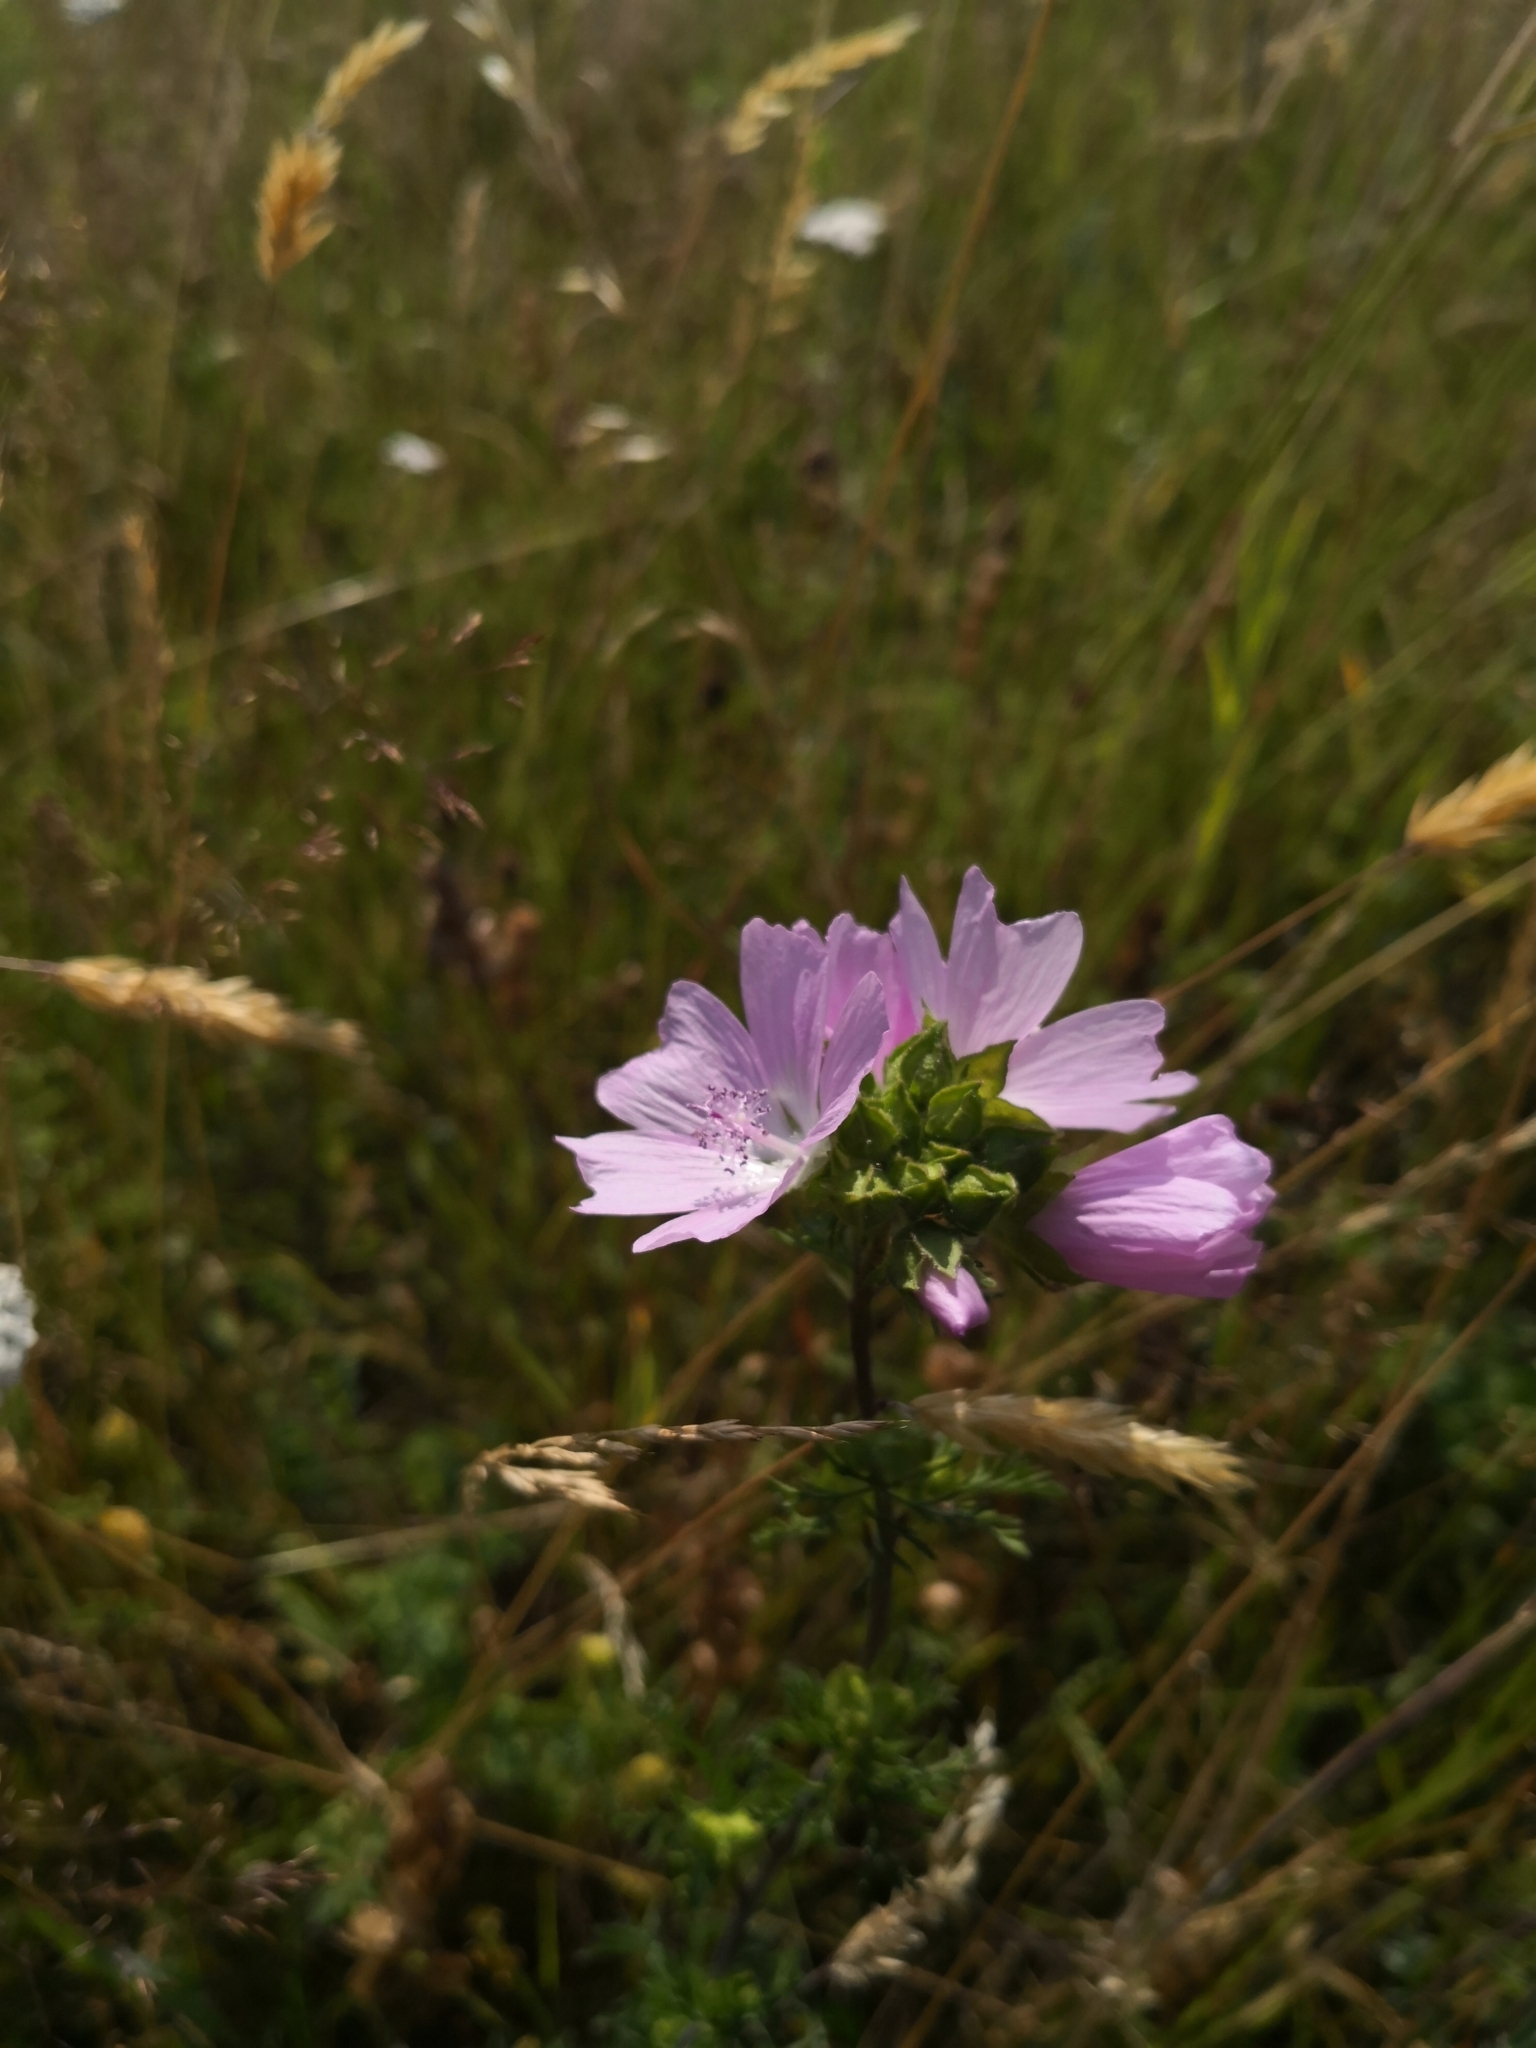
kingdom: Plantae
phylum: Tracheophyta
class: Magnoliopsida
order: Malvales
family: Malvaceae
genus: Malva
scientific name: Malva moschata
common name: Musk mallow
